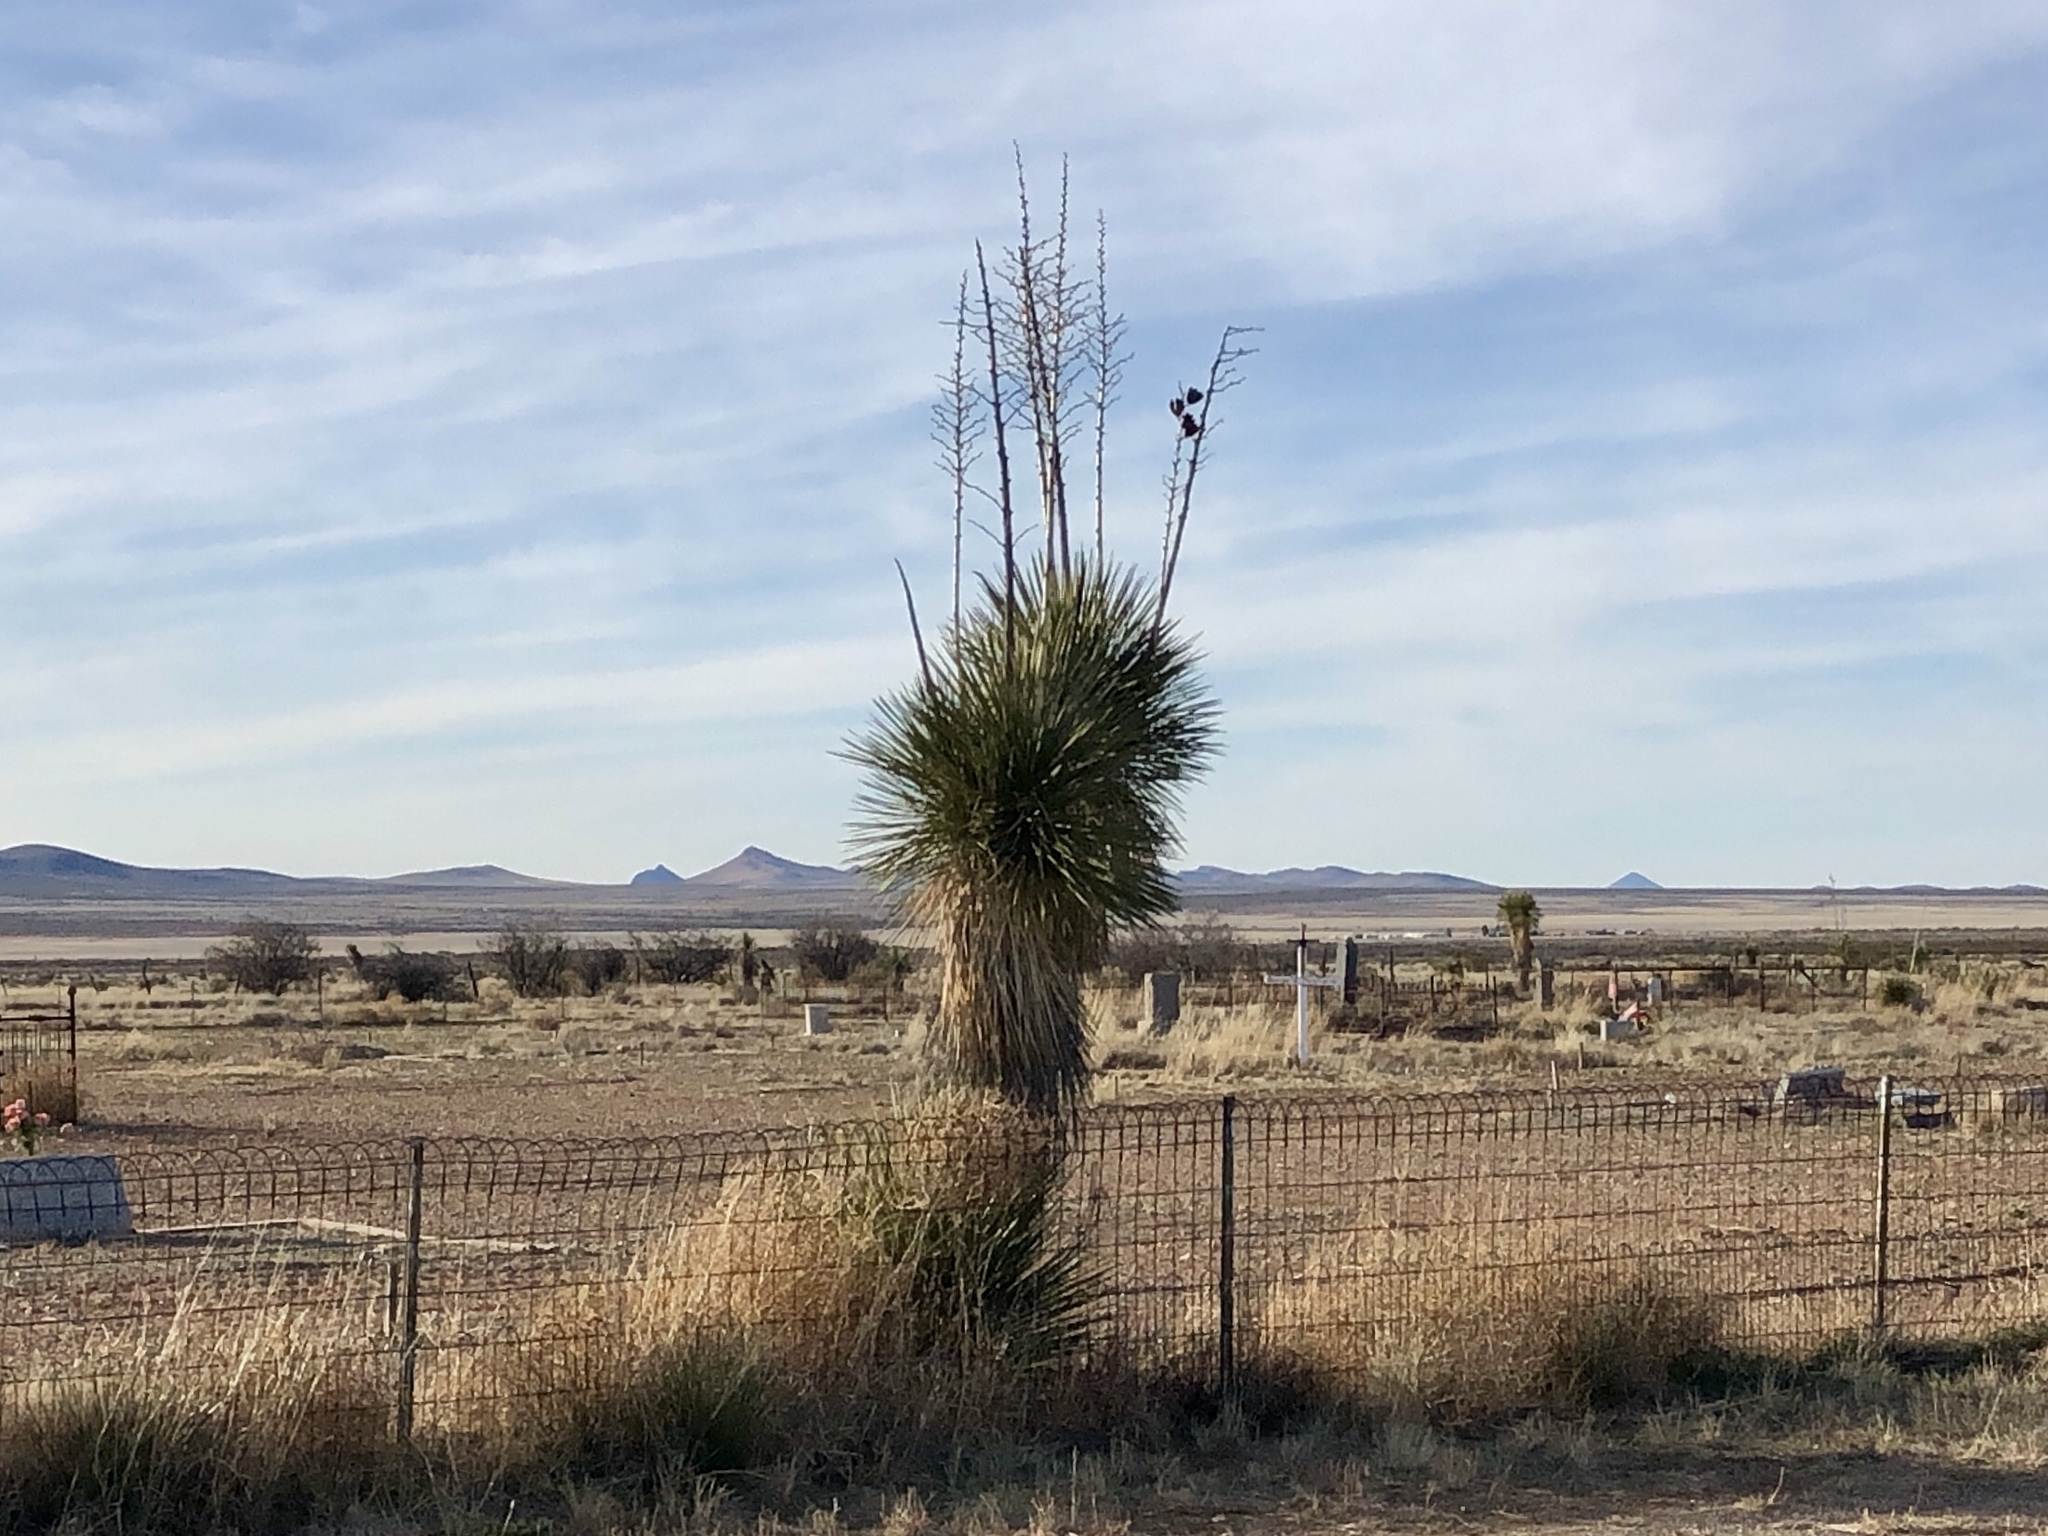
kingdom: Plantae
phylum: Tracheophyta
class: Liliopsida
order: Asparagales
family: Asparagaceae
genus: Yucca
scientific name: Yucca elata
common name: Palmella
